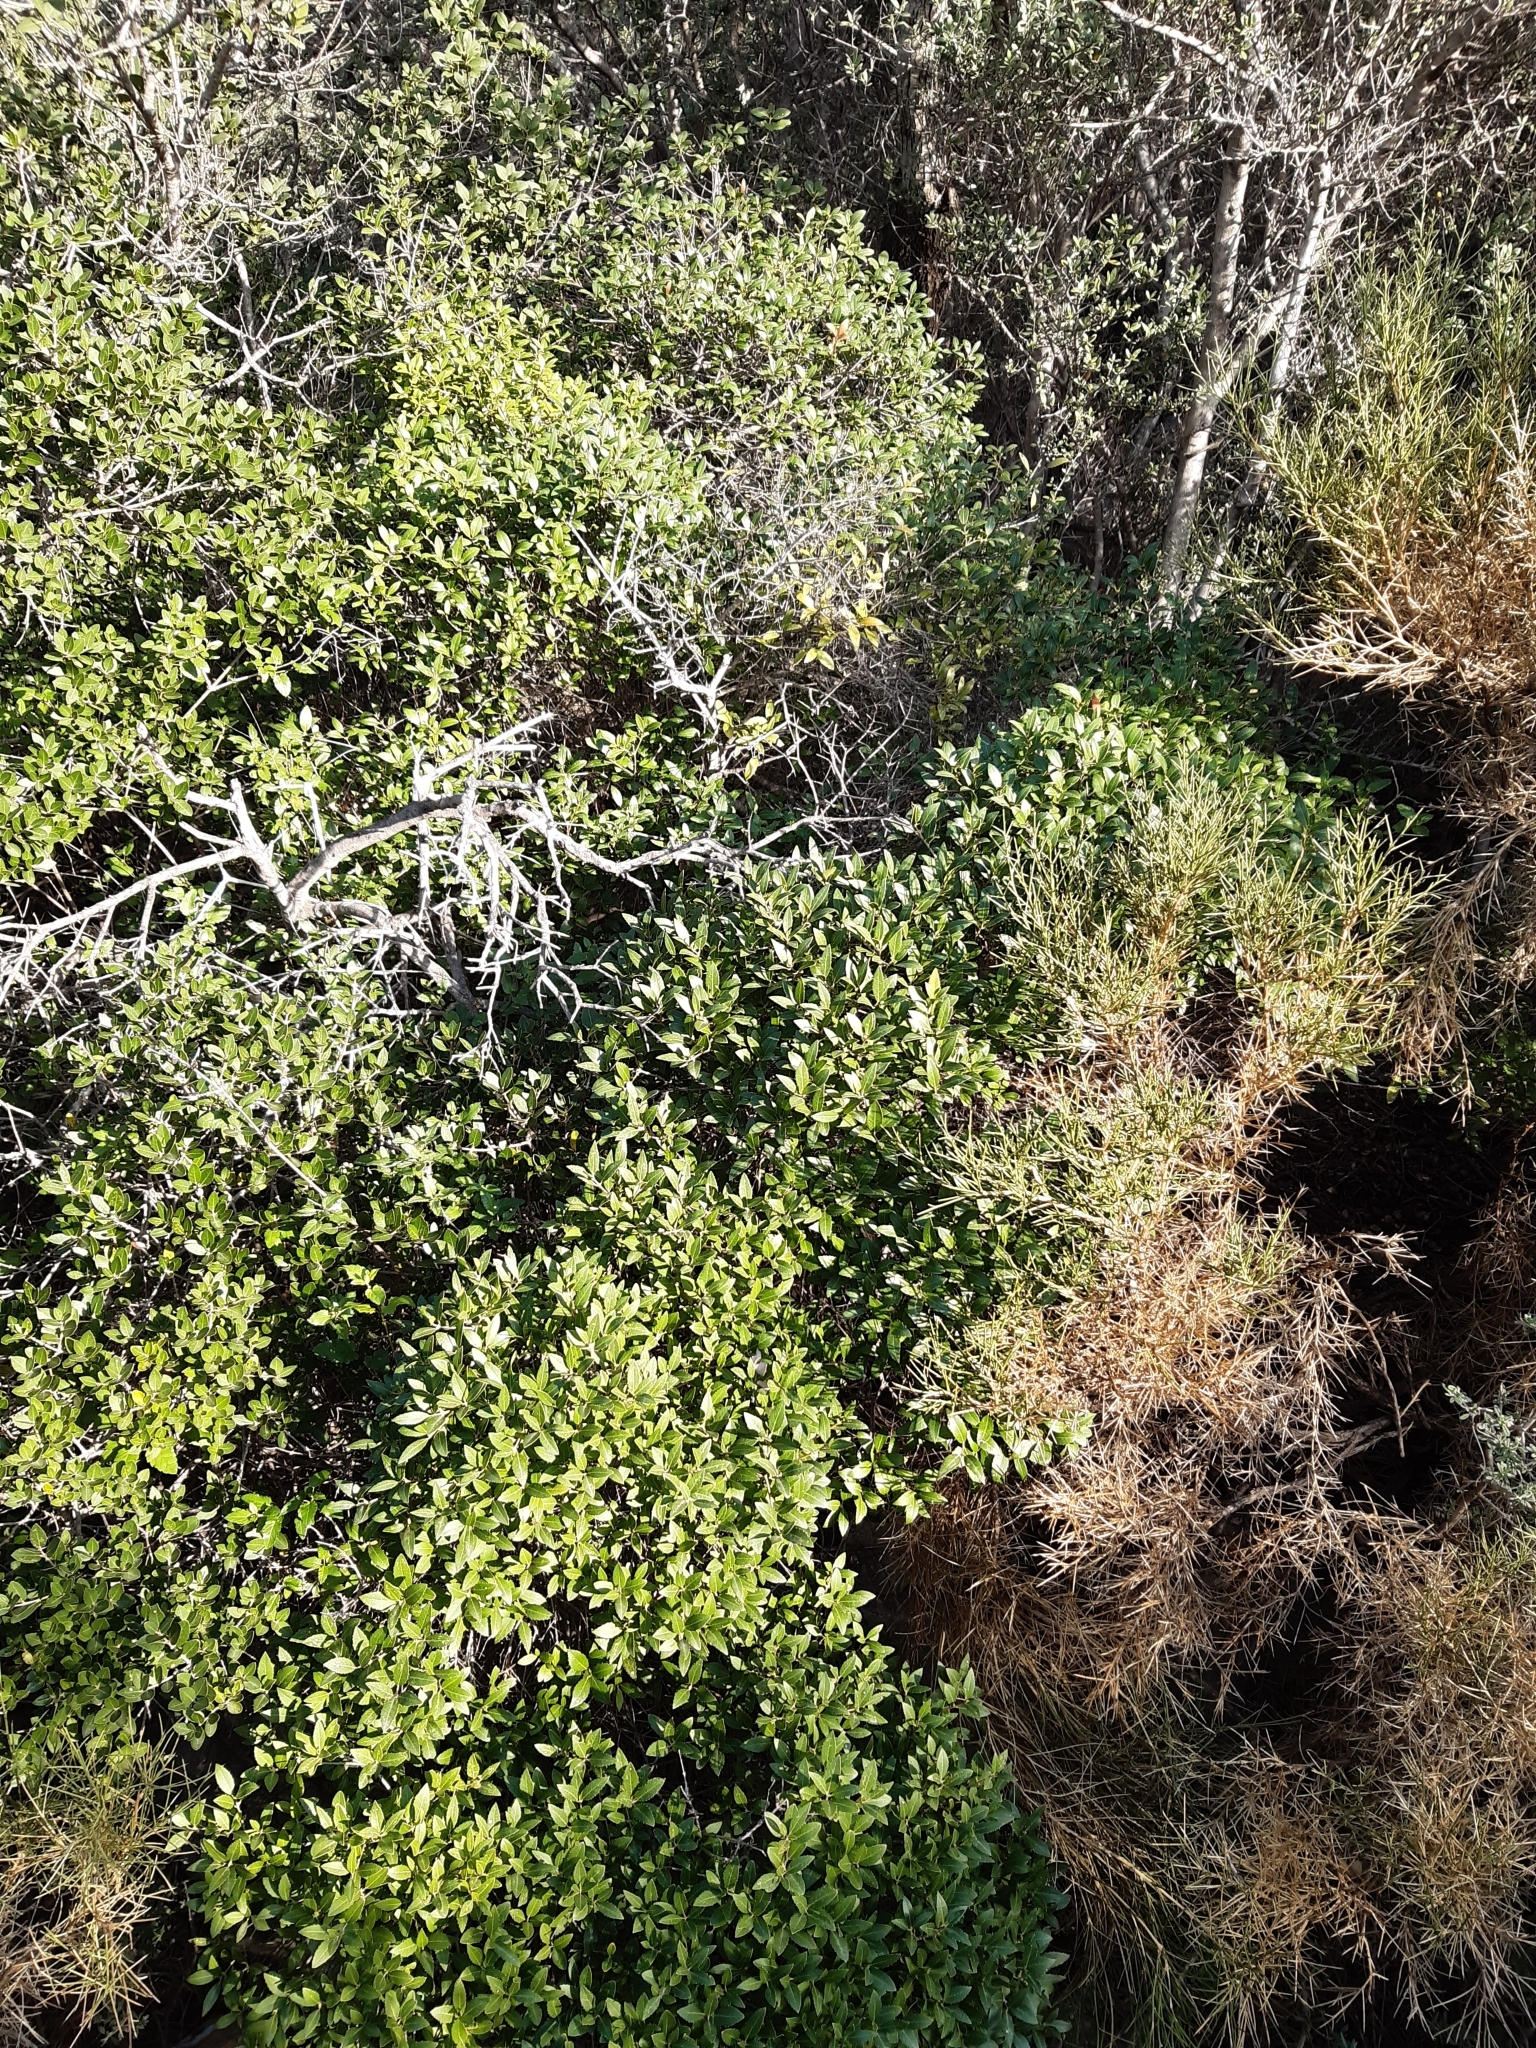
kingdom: Plantae
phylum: Tracheophyta
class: Magnoliopsida
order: Lamiales
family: Oleaceae
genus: Phillyrea
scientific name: Phillyrea latifolia
